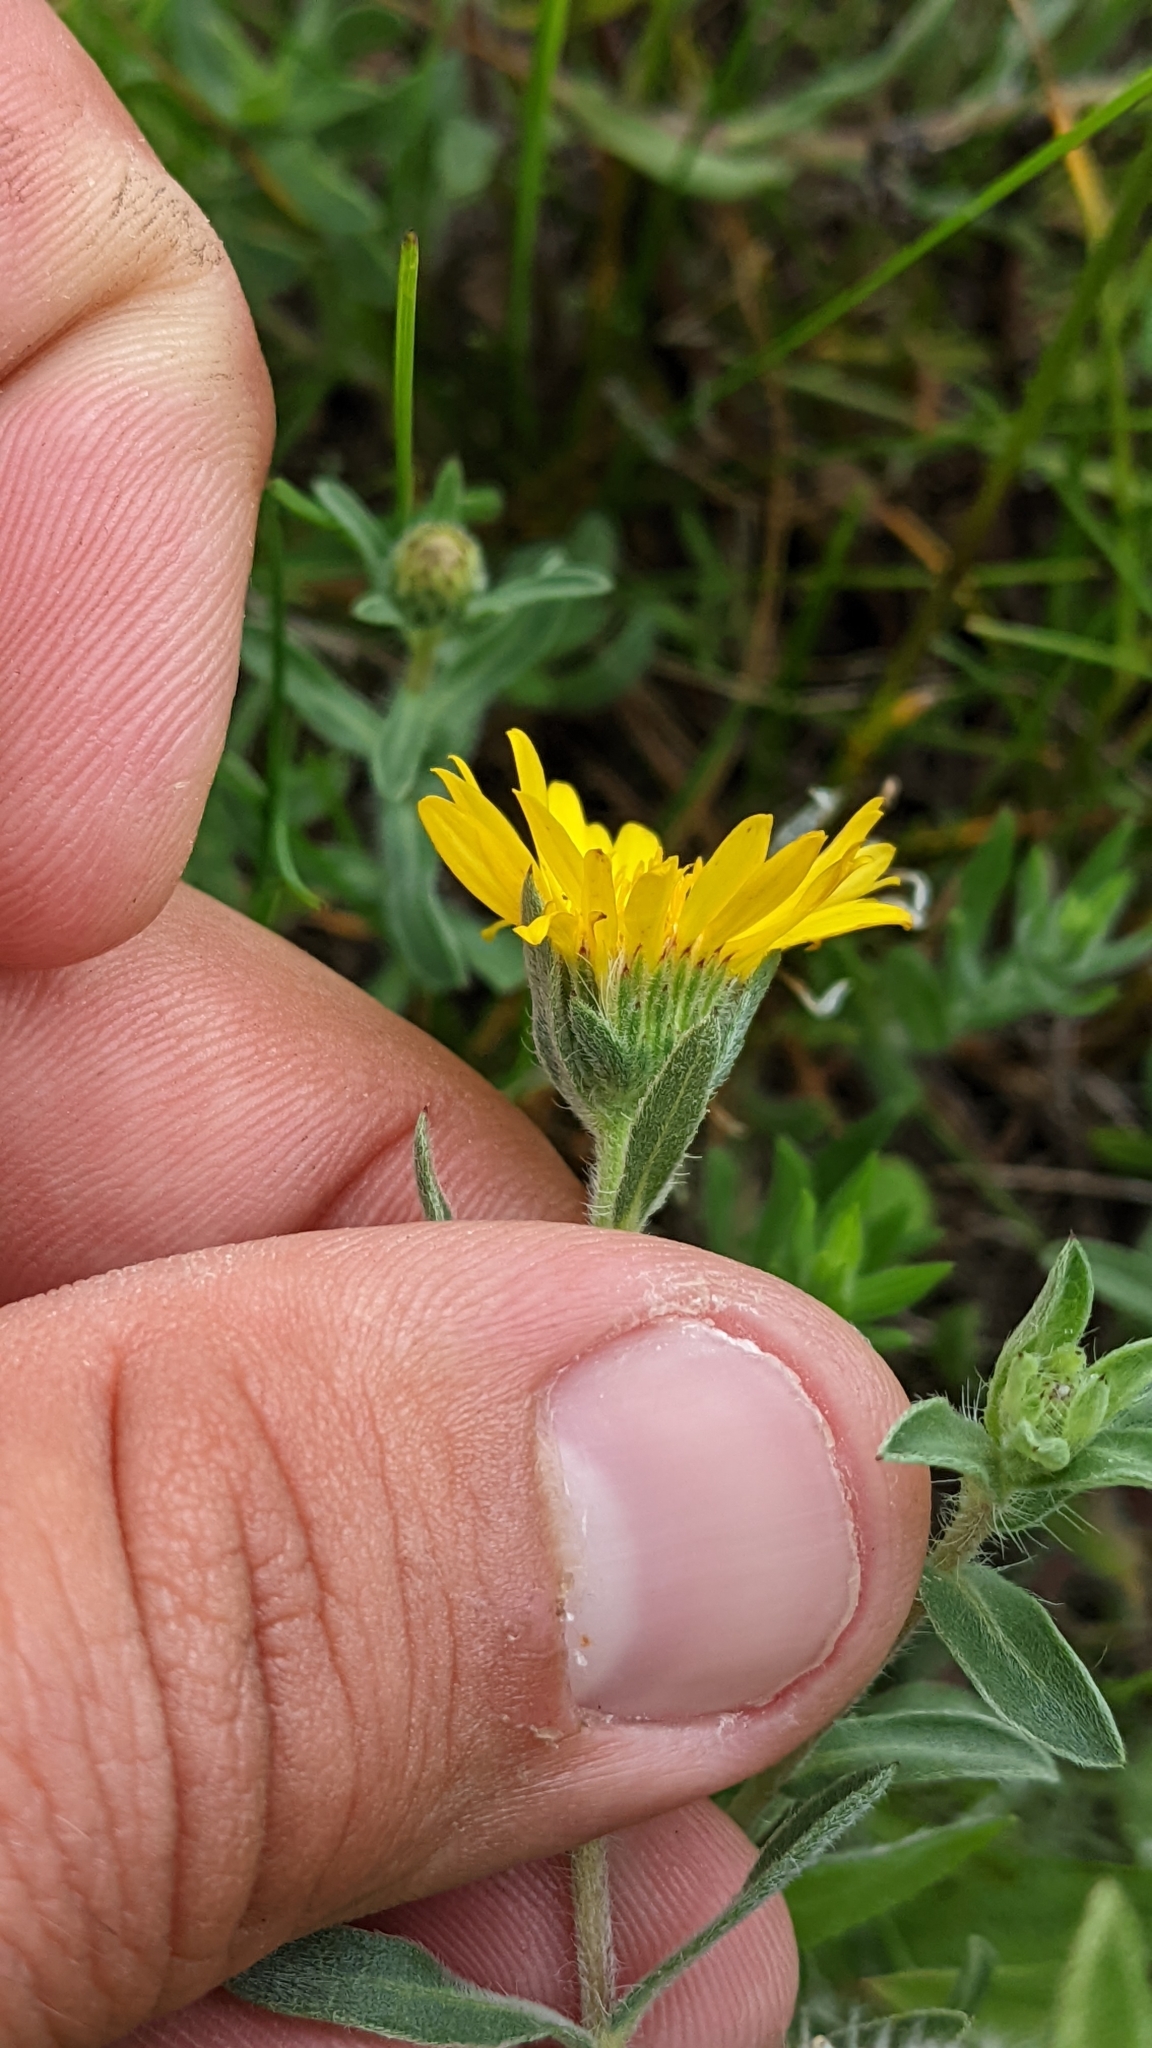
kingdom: Plantae
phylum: Tracheophyta
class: Magnoliopsida
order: Asterales
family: Asteraceae
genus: Heterotheca
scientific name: Heterotheca villosa
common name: Hairy false goldenaster
